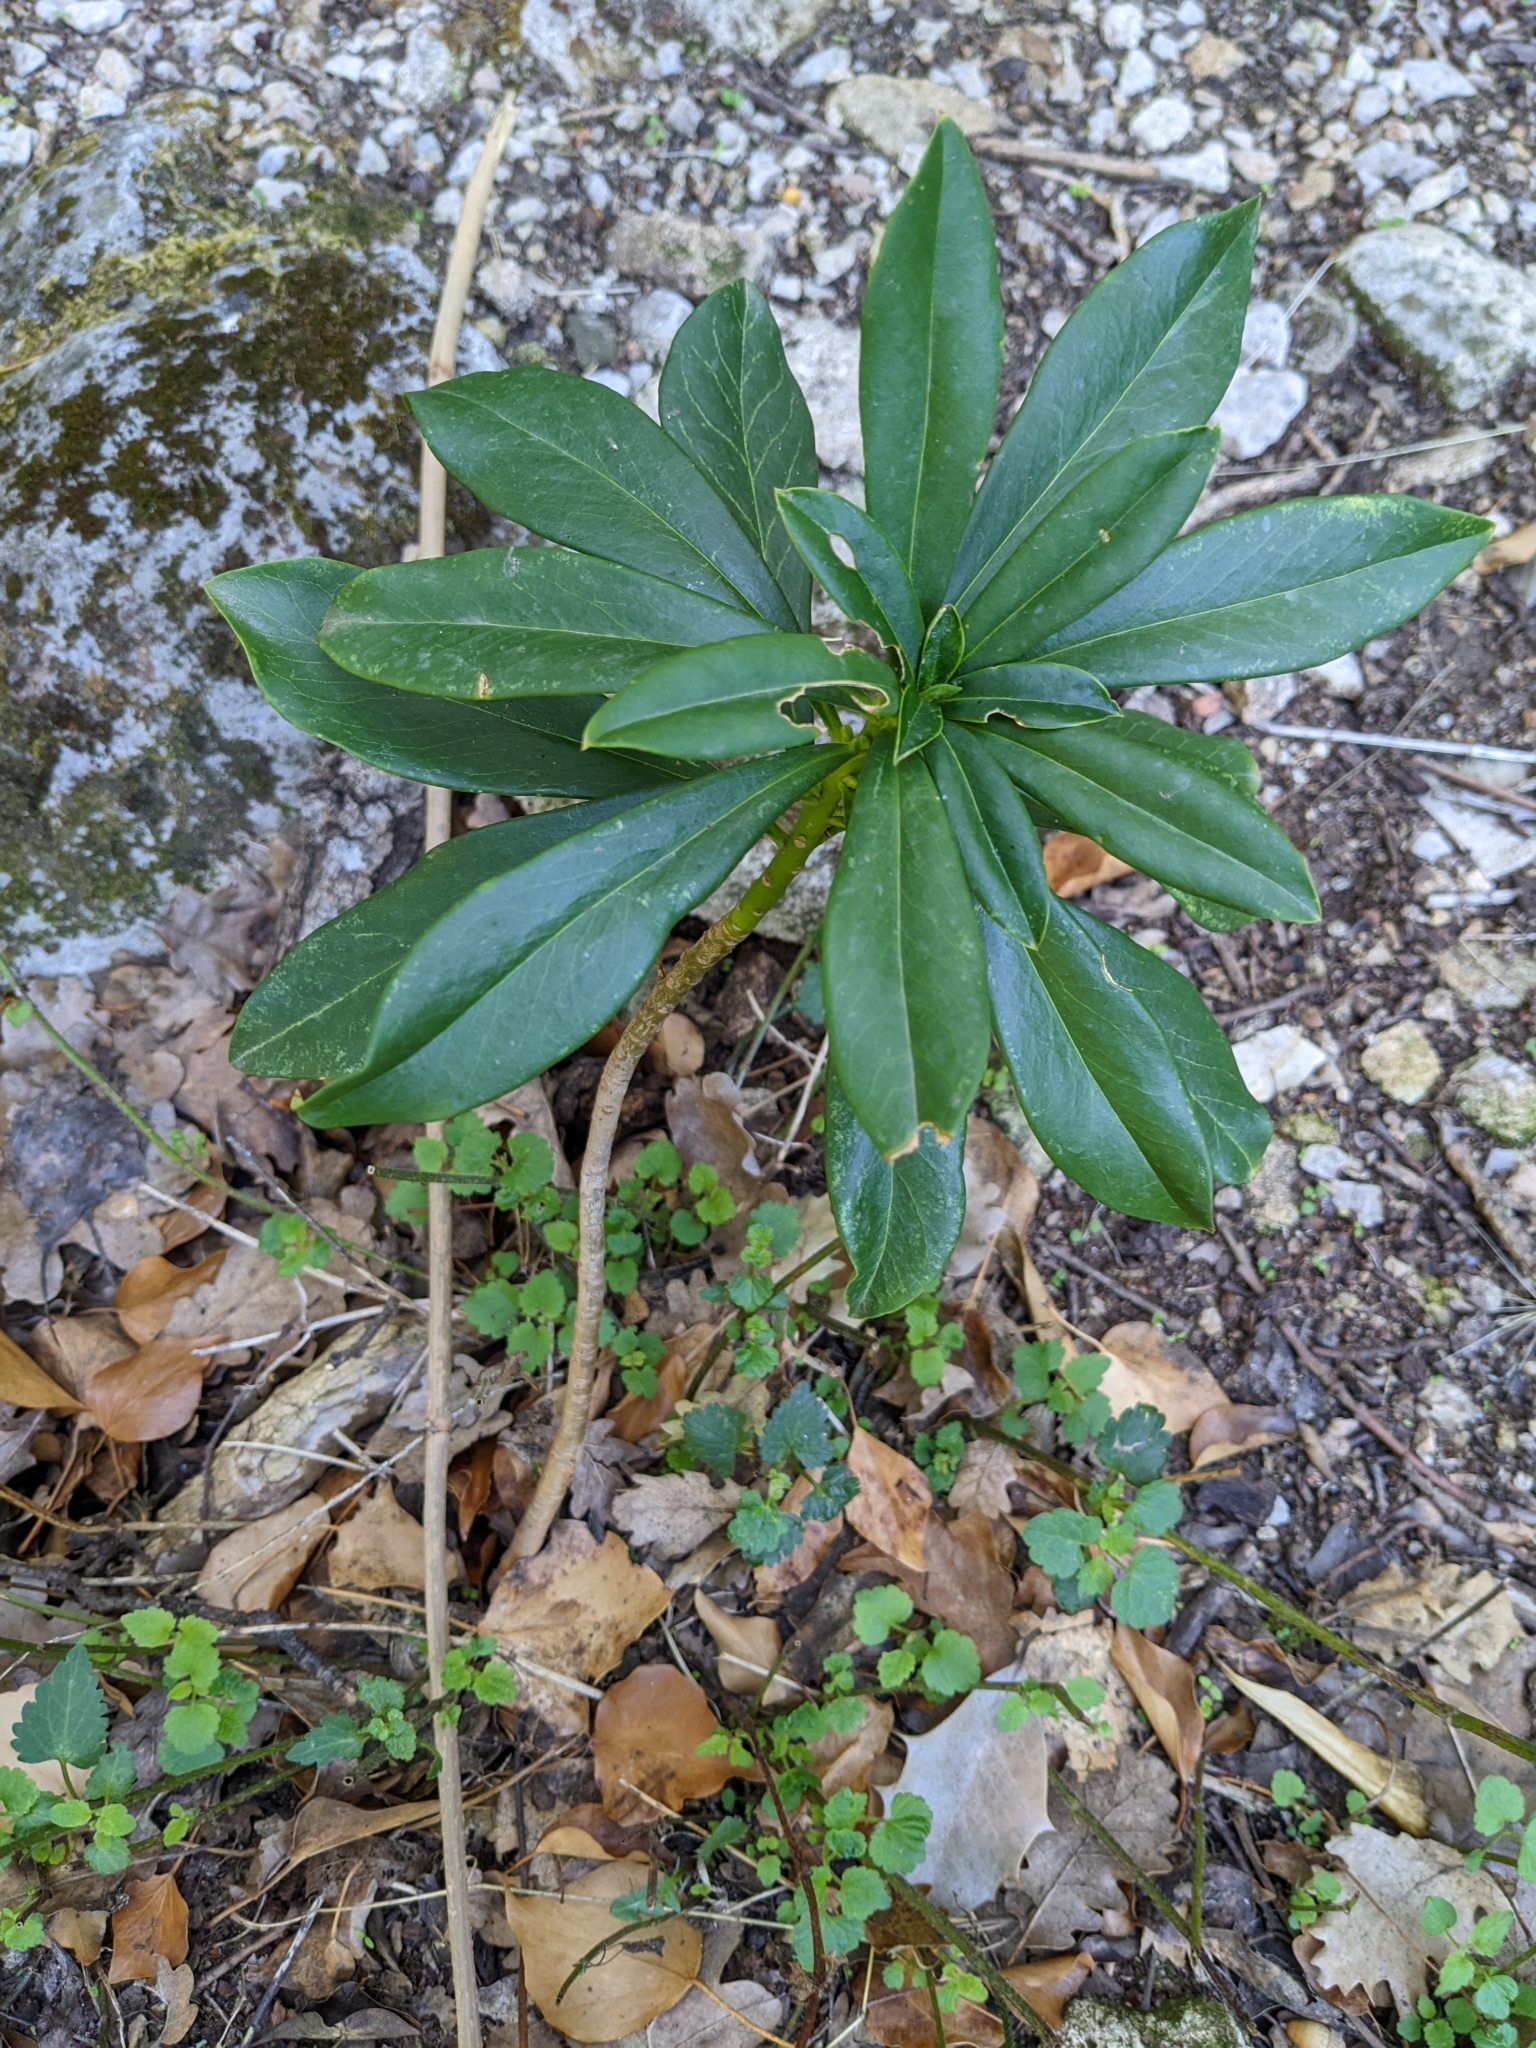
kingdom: Plantae
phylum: Tracheophyta
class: Magnoliopsida
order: Malvales
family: Thymelaeaceae
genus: Daphne
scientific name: Daphne laureola
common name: Spurge-laurel
